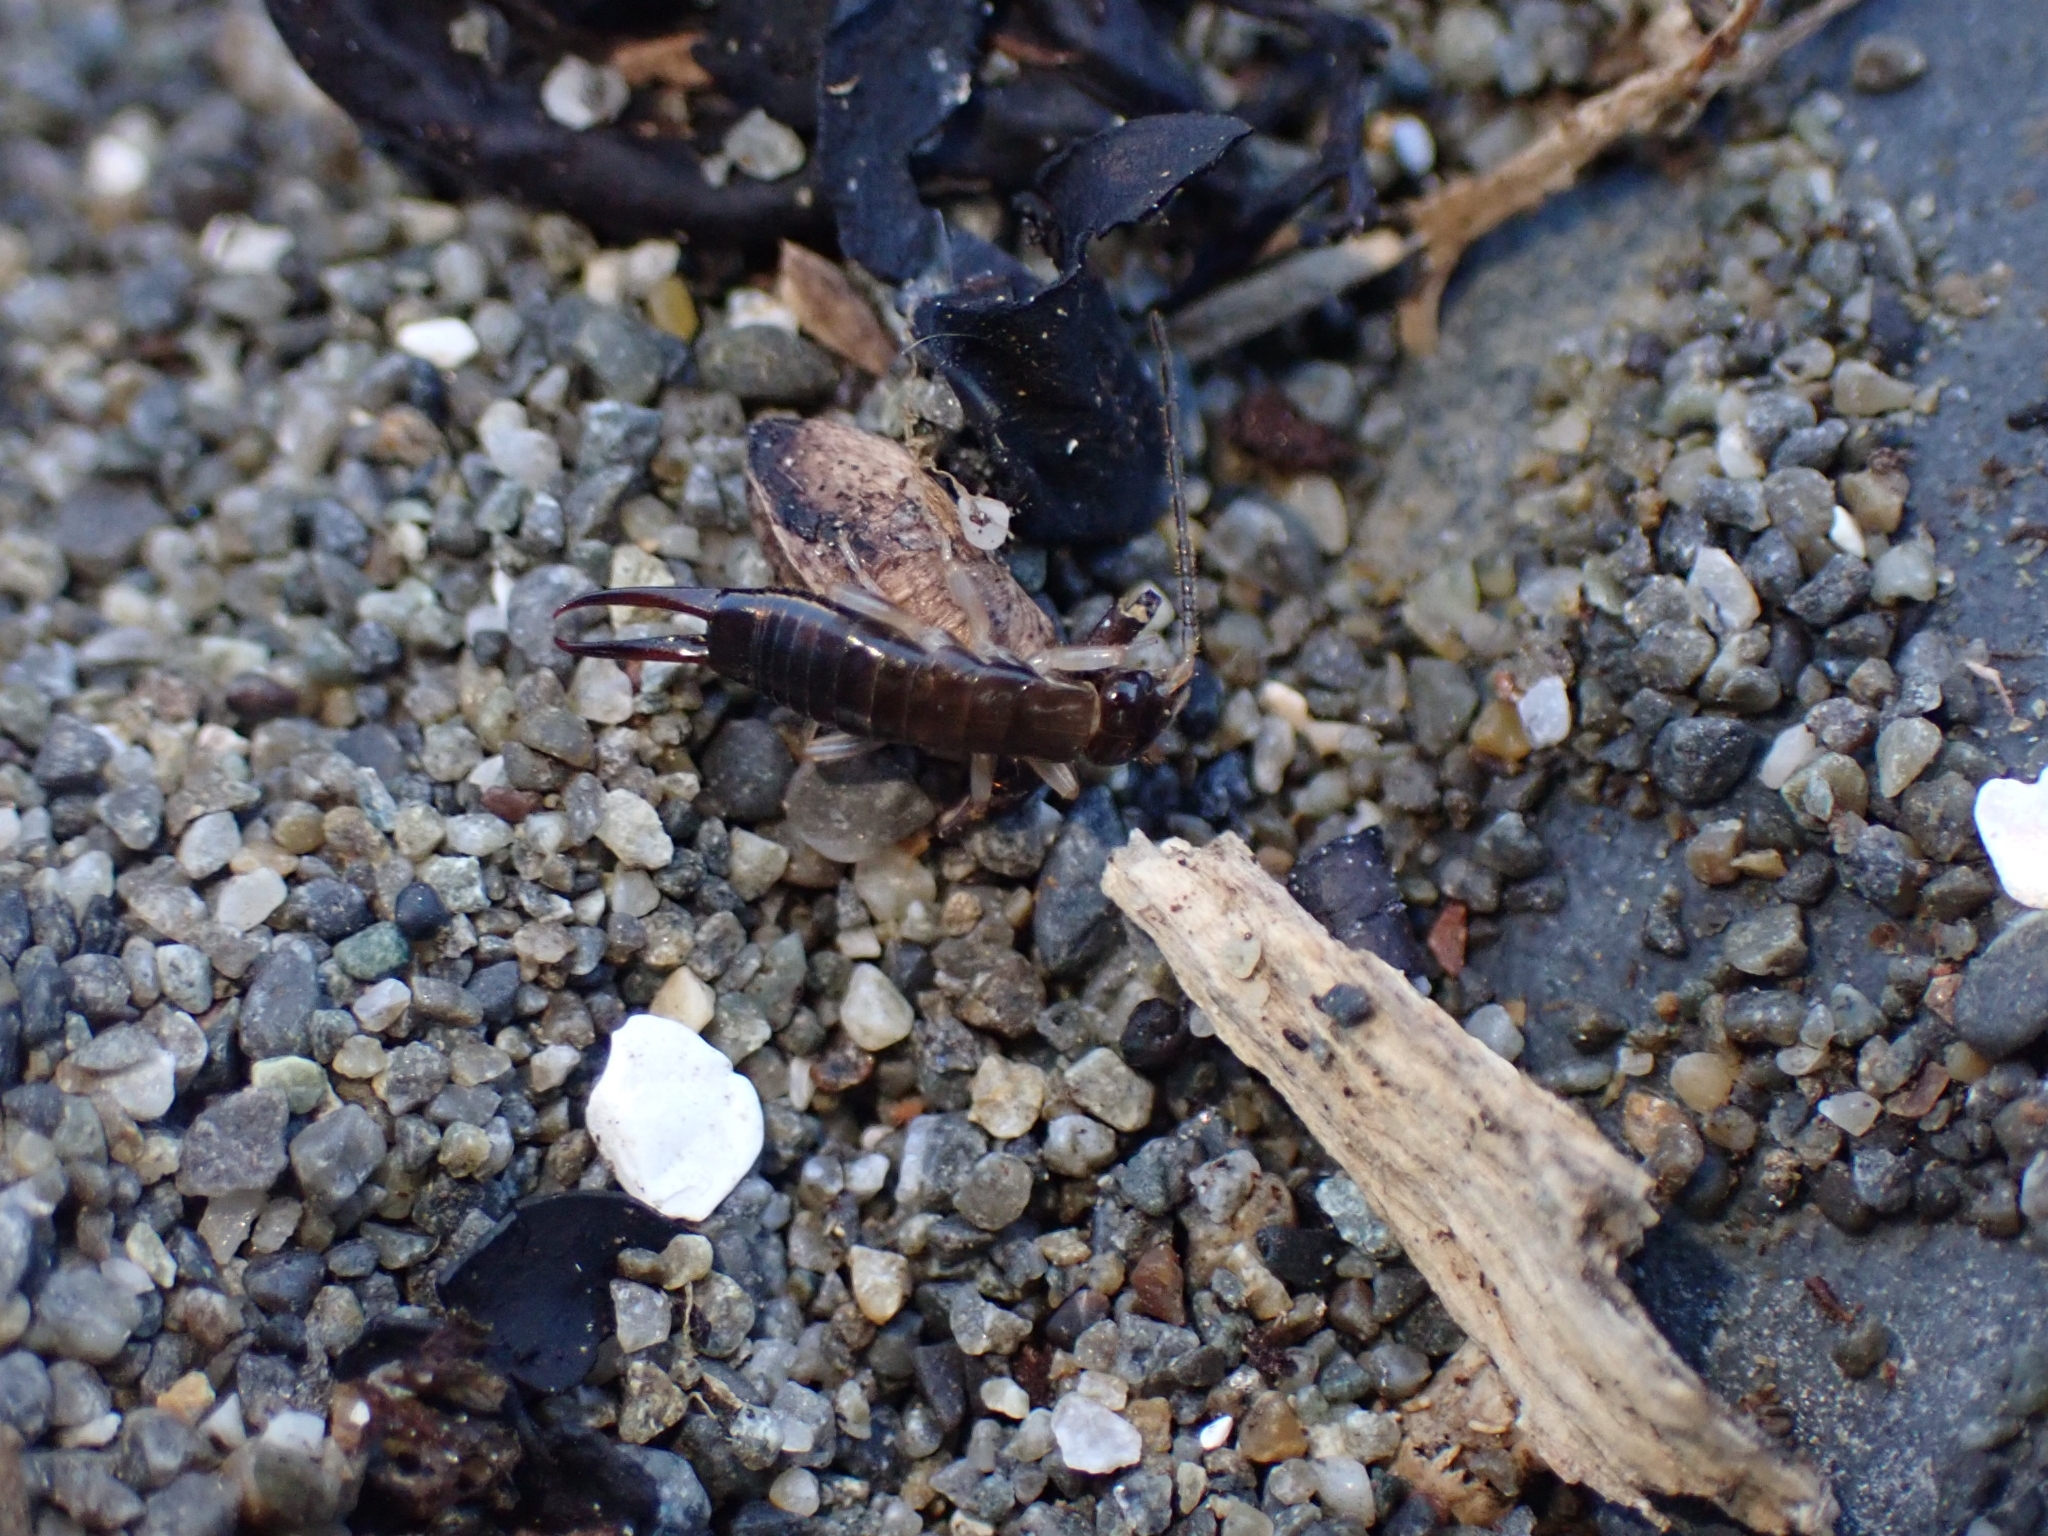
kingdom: Animalia
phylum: Arthropoda
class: Insecta
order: Dermaptera
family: Anisolabididae
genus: Anisolabis
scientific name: Anisolabis littorea
